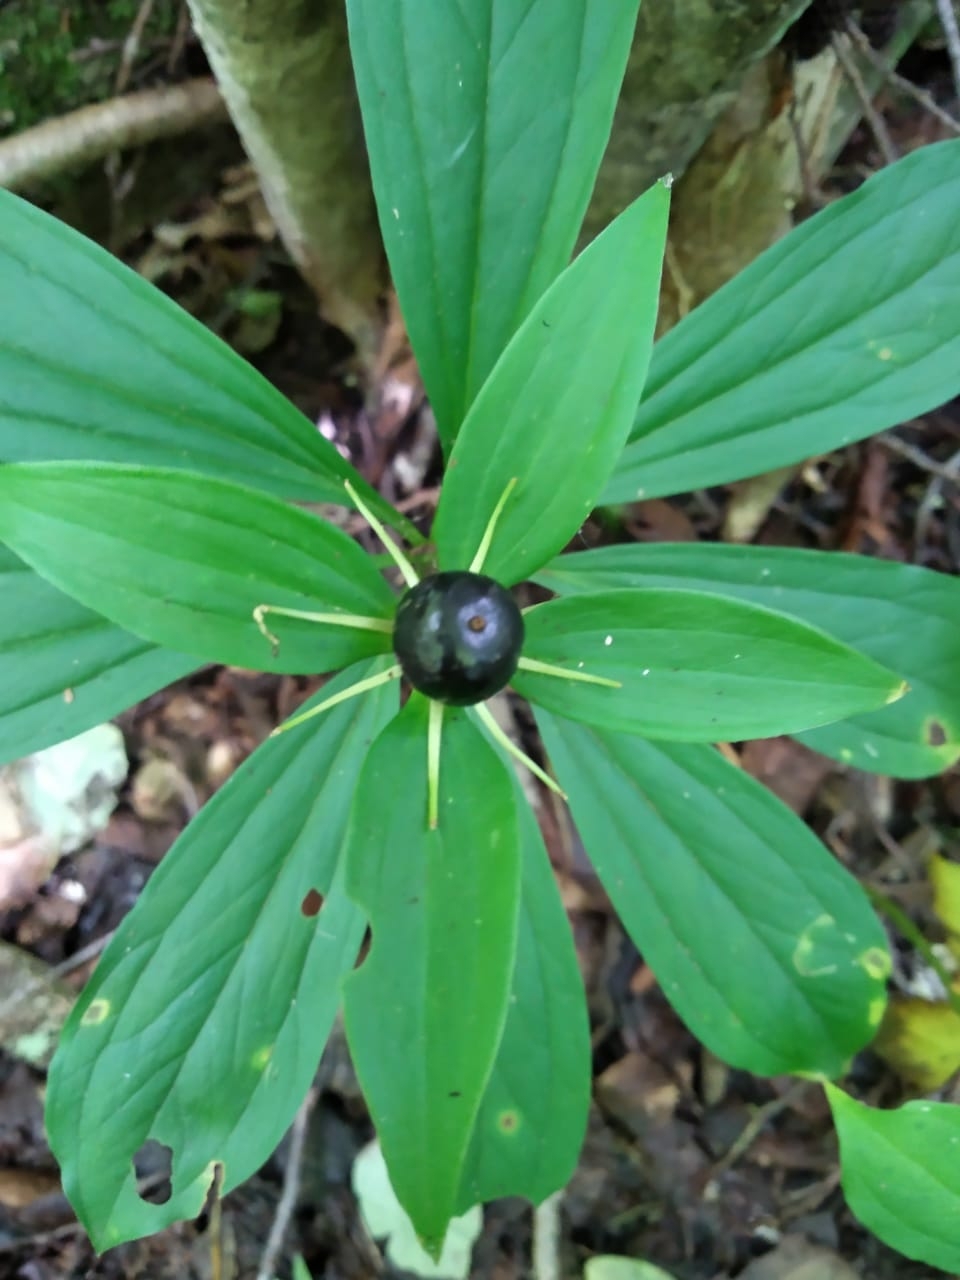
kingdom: Plantae
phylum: Tracheophyta
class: Liliopsida
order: Liliales
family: Melanthiaceae
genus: Paris
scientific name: Paris incompleta
